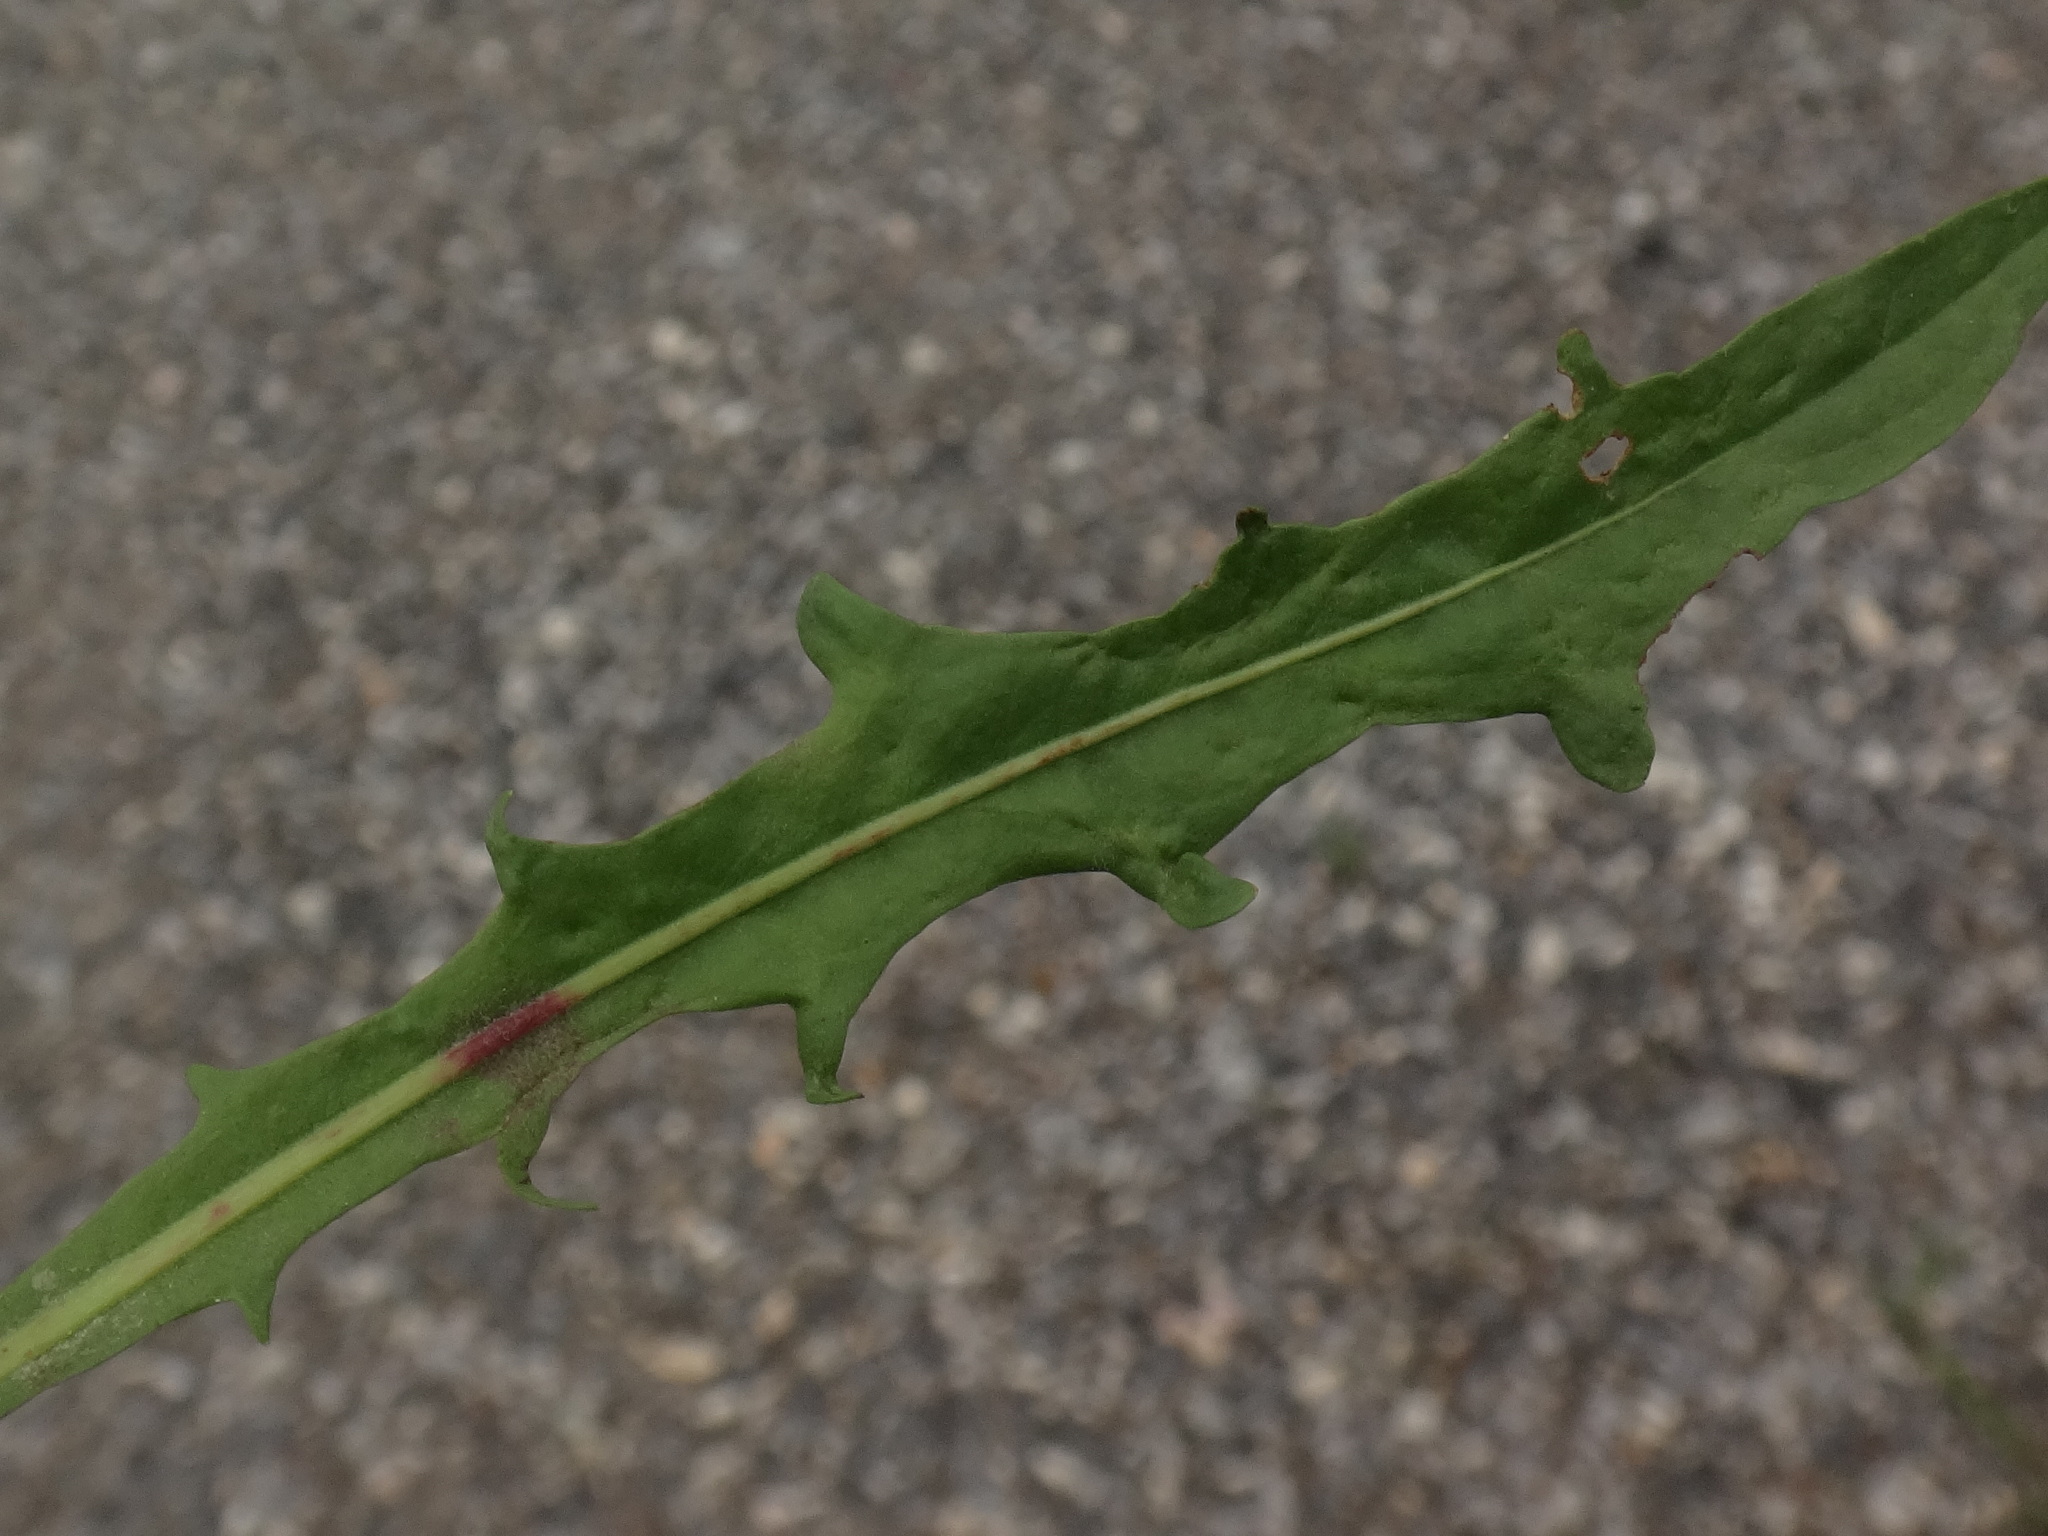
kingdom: Plantae
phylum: Tracheophyta
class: Magnoliopsida
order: Asterales
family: Asteraceae
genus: Scorzoneroides
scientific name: Scorzoneroides autumnalis
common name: Autumn hawkbit
